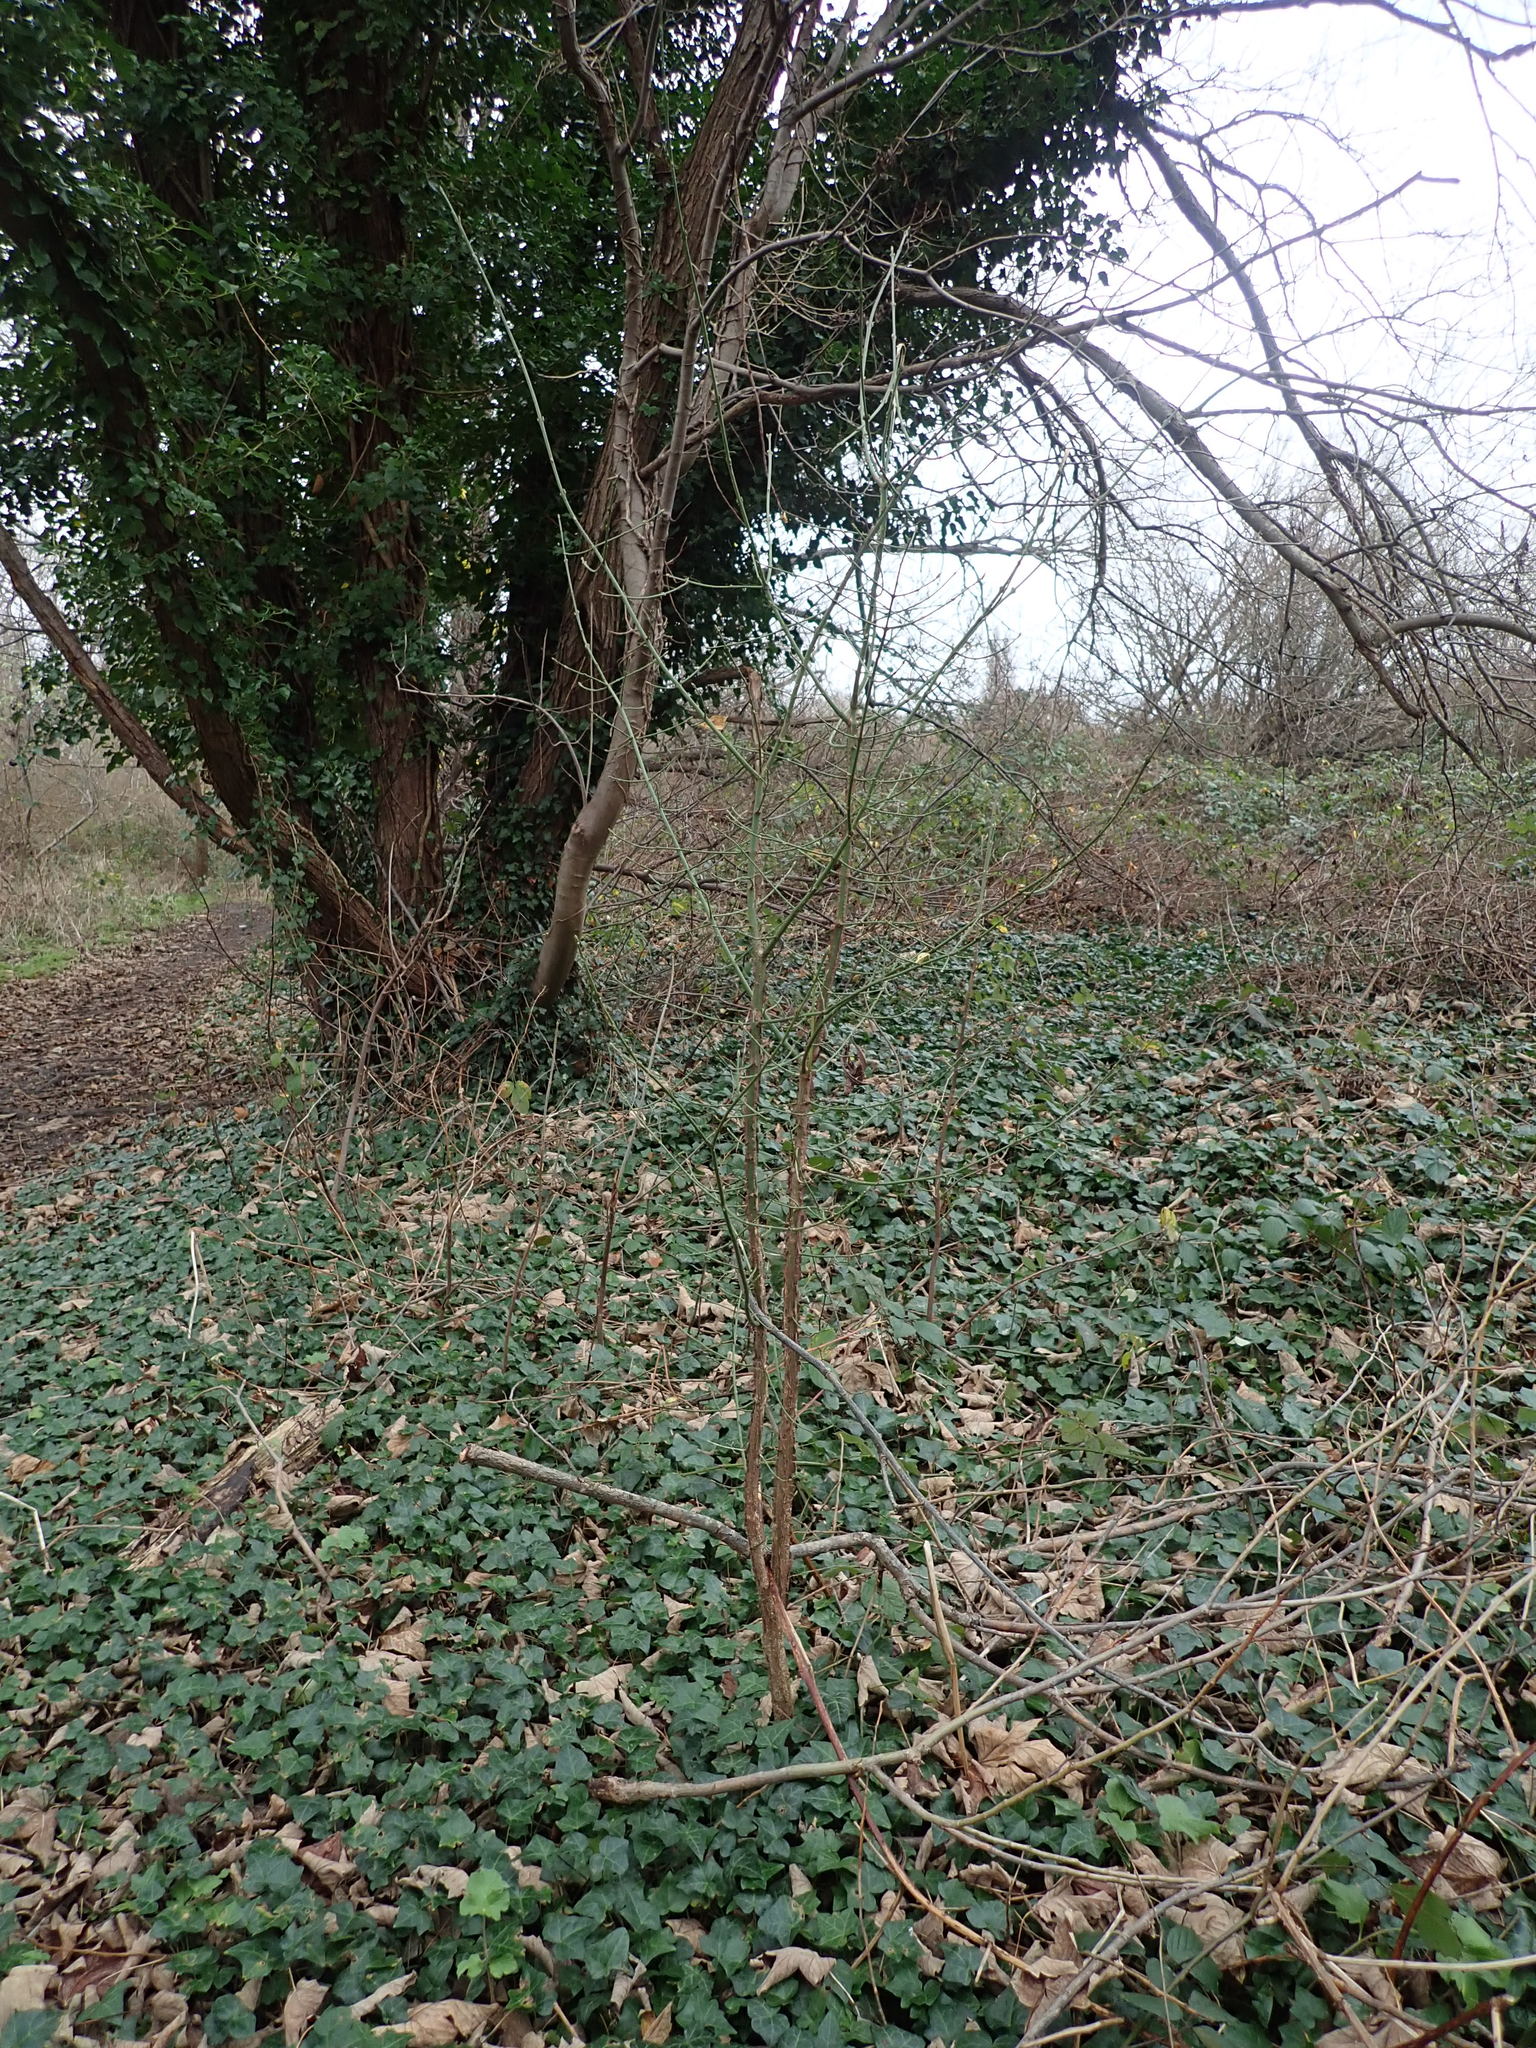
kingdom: Plantae
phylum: Tracheophyta
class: Magnoliopsida
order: Celastrales
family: Celastraceae
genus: Euonymus
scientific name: Euonymus europaeus
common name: Spindle
